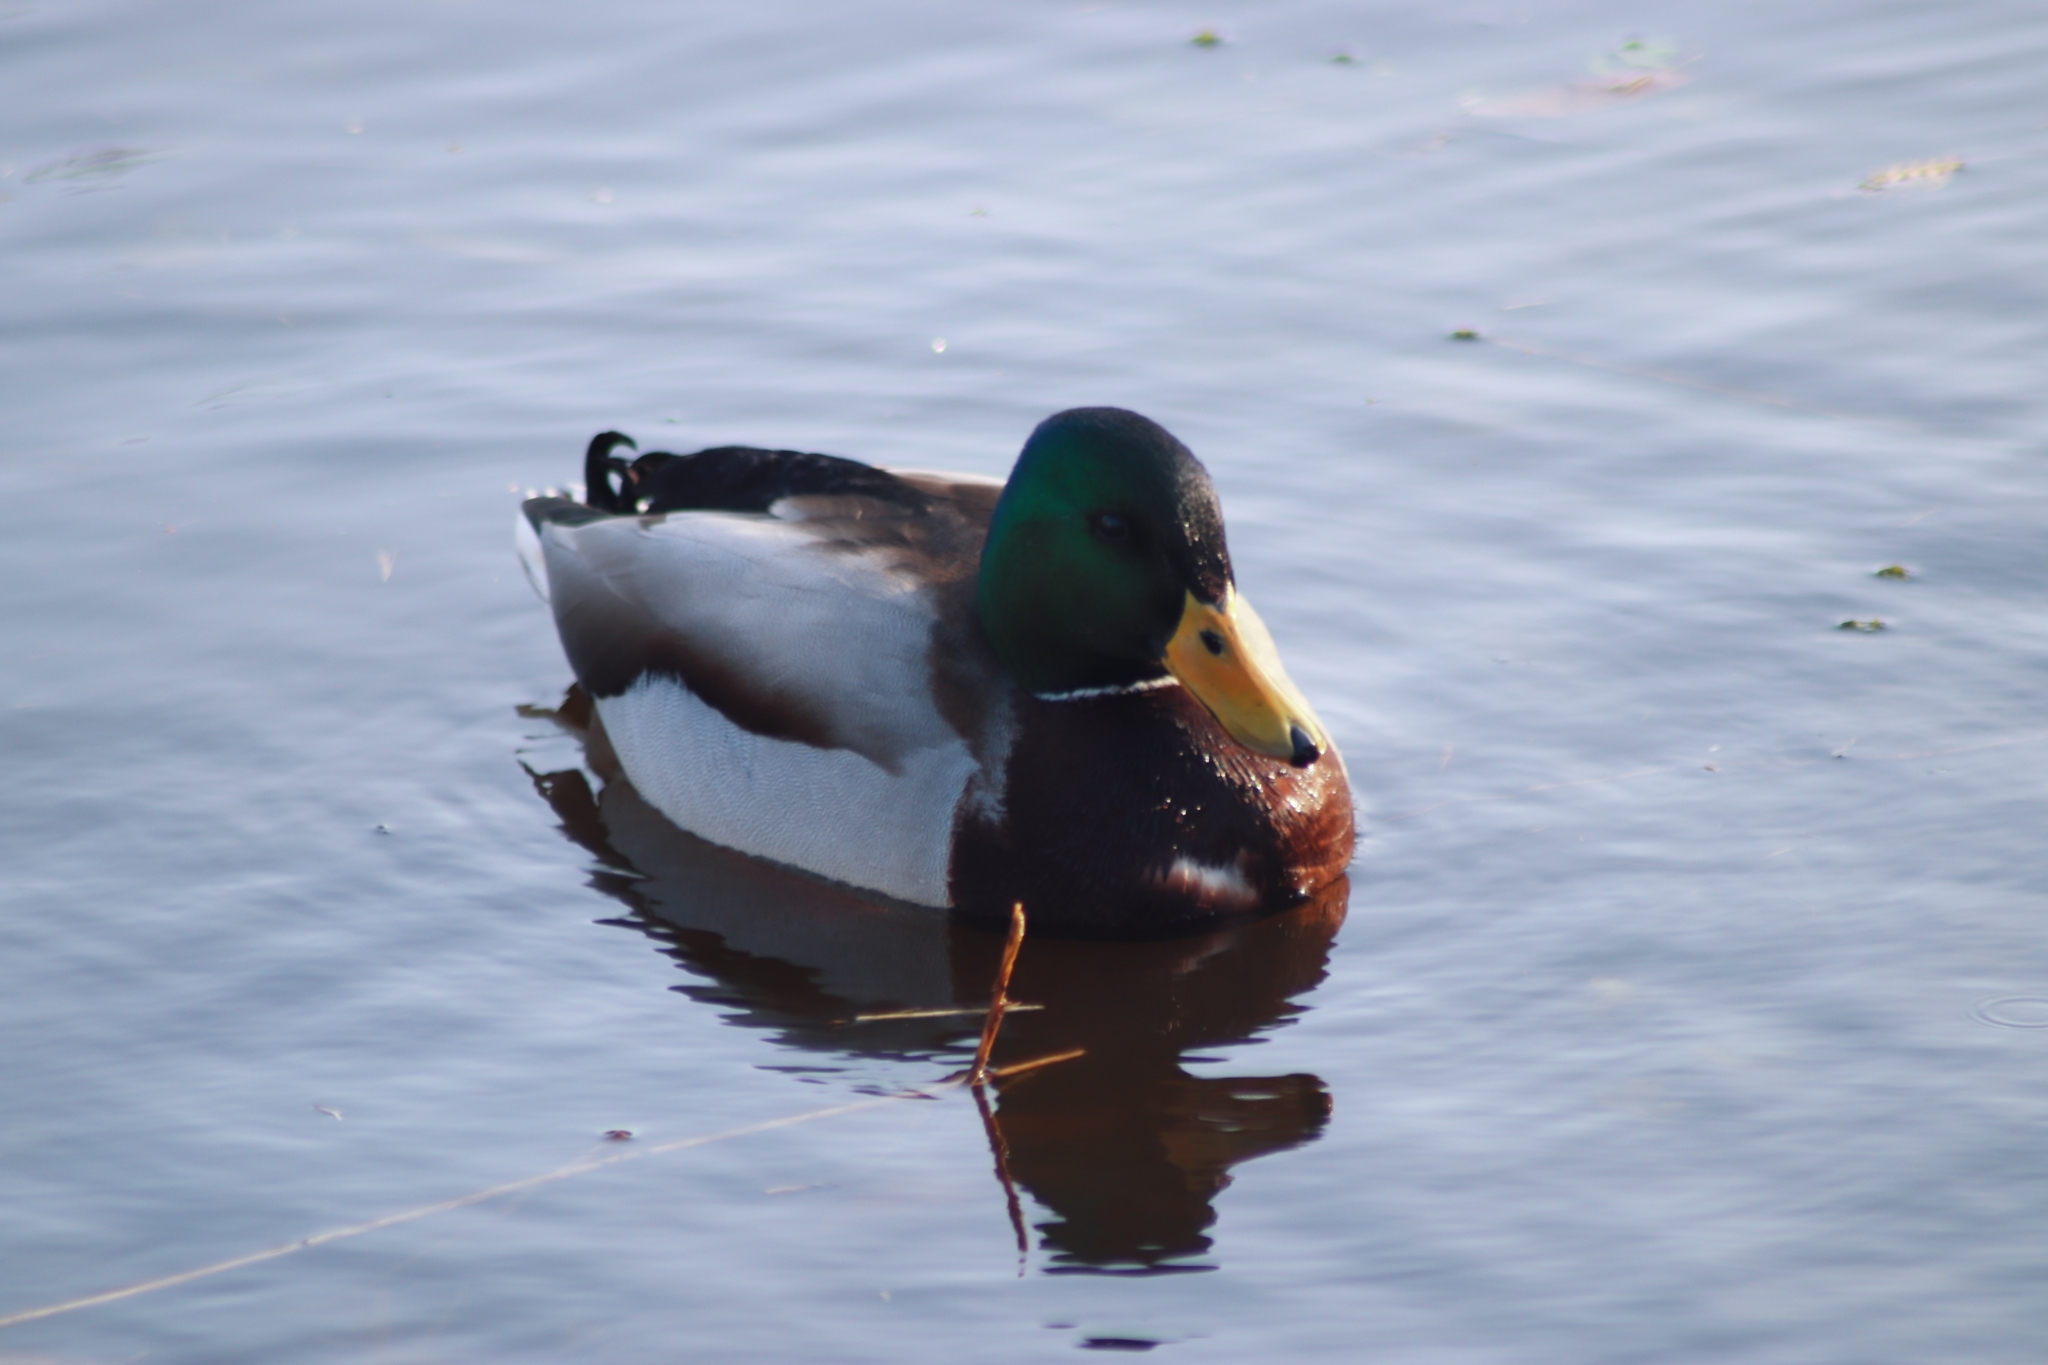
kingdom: Animalia
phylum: Chordata
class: Aves
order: Anseriformes
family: Anatidae
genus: Anas
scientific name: Anas platyrhynchos
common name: Mallard
